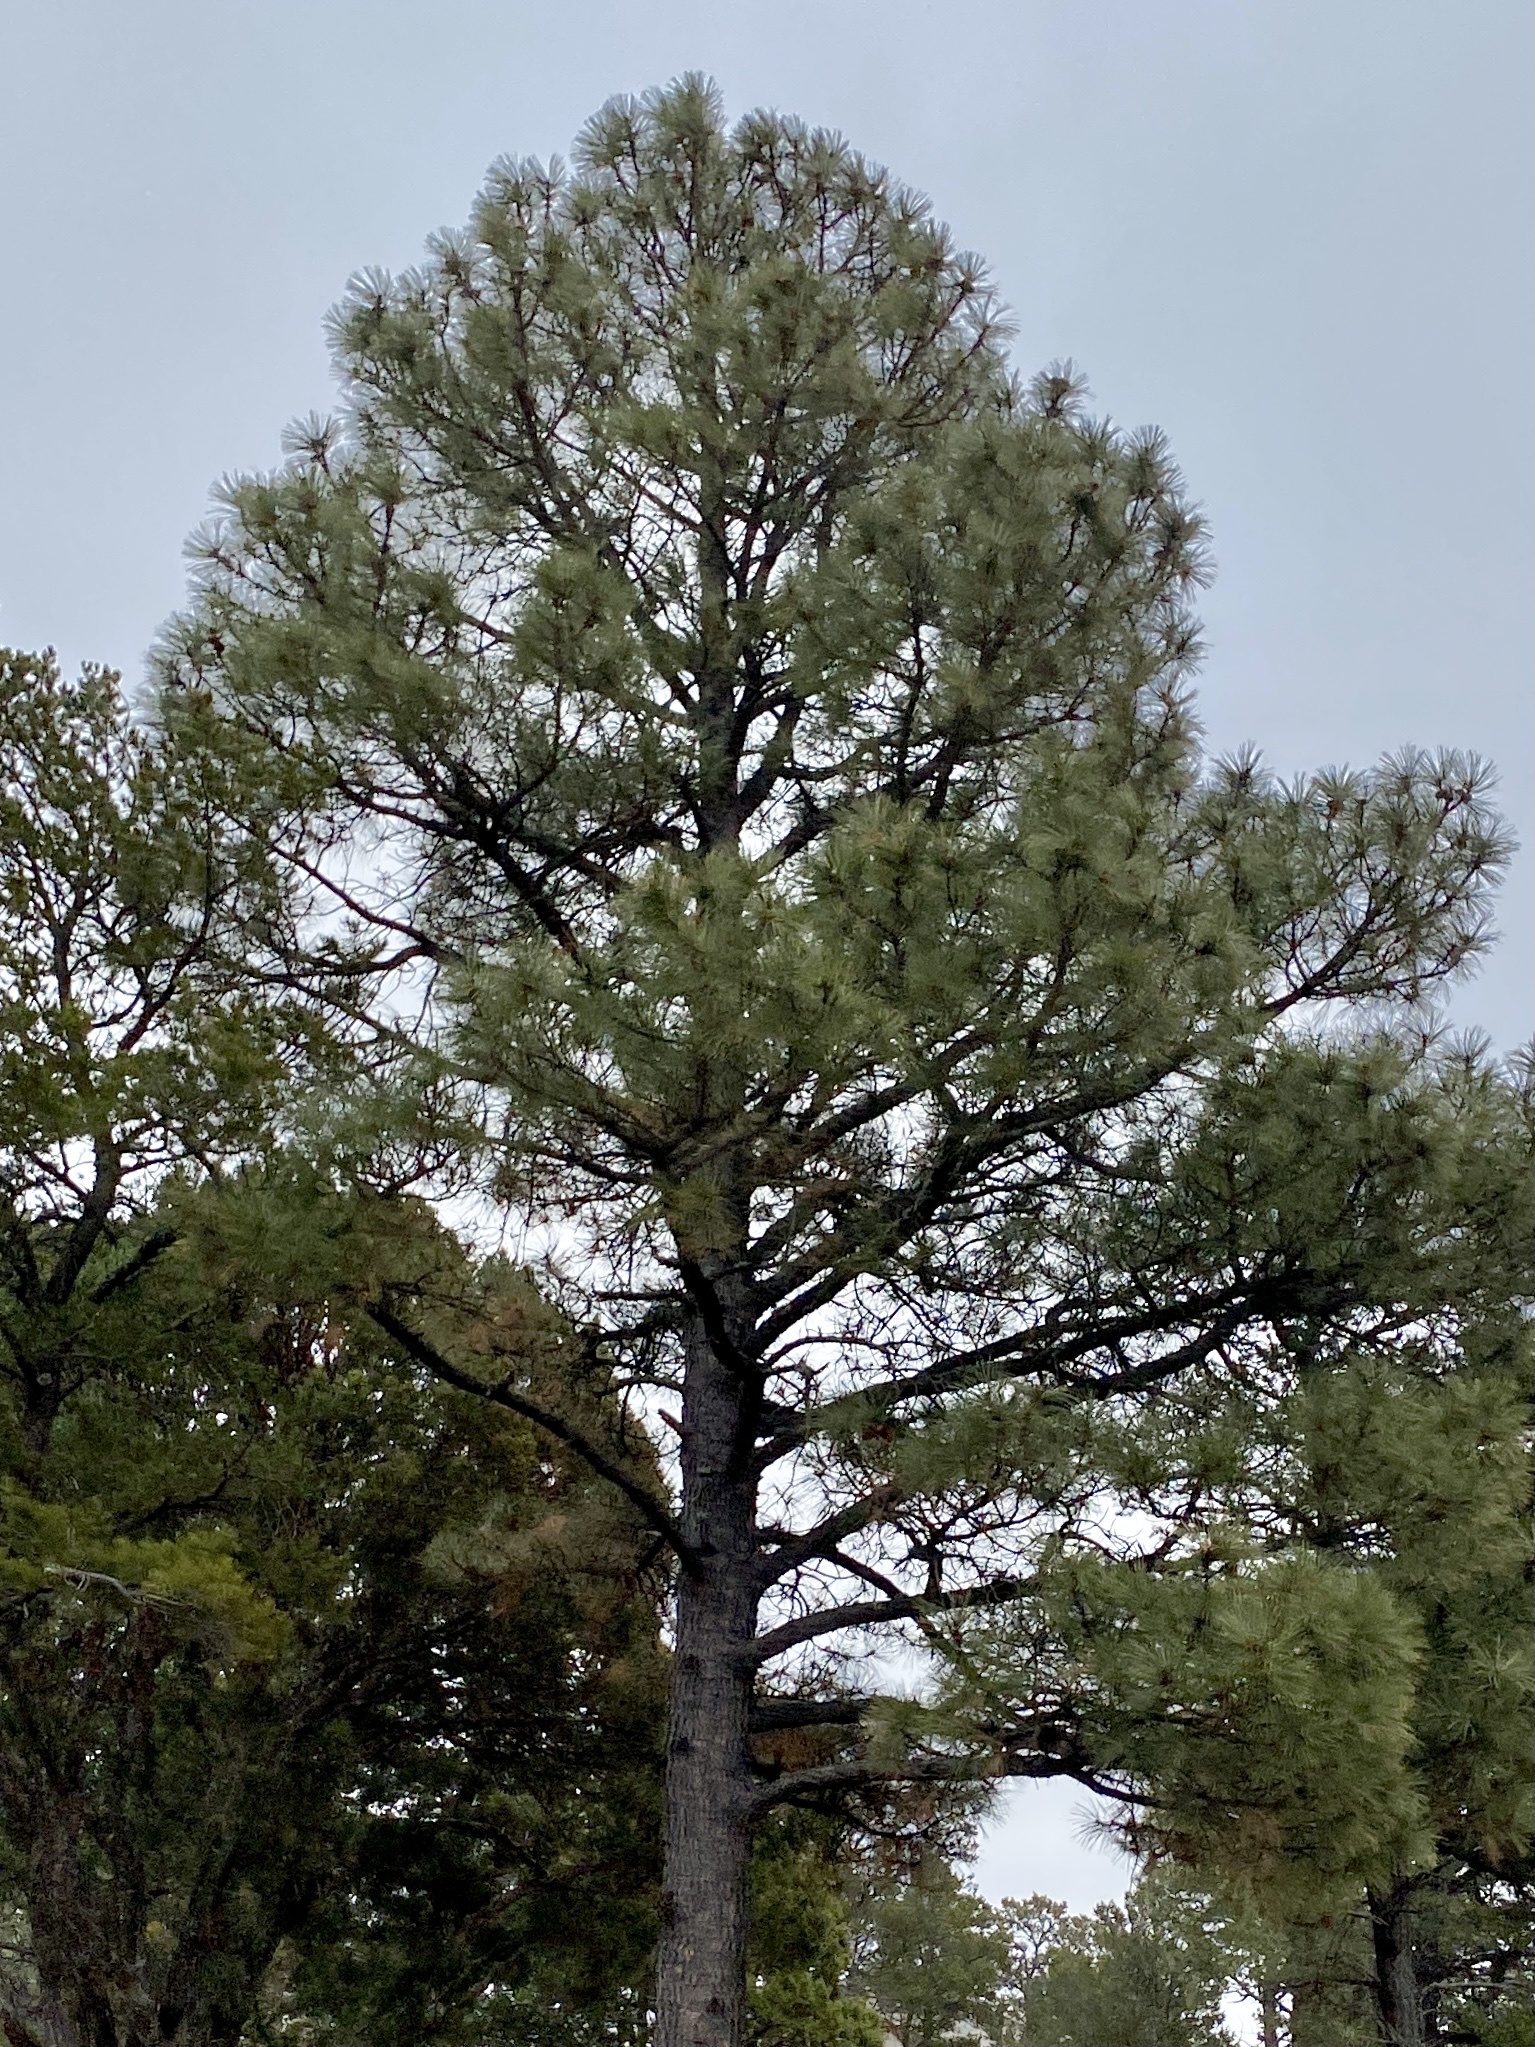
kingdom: Plantae
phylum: Tracheophyta
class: Pinopsida
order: Pinales
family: Pinaceae
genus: Pinus
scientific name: Pinus ponderosa
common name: Western yellow-pine
